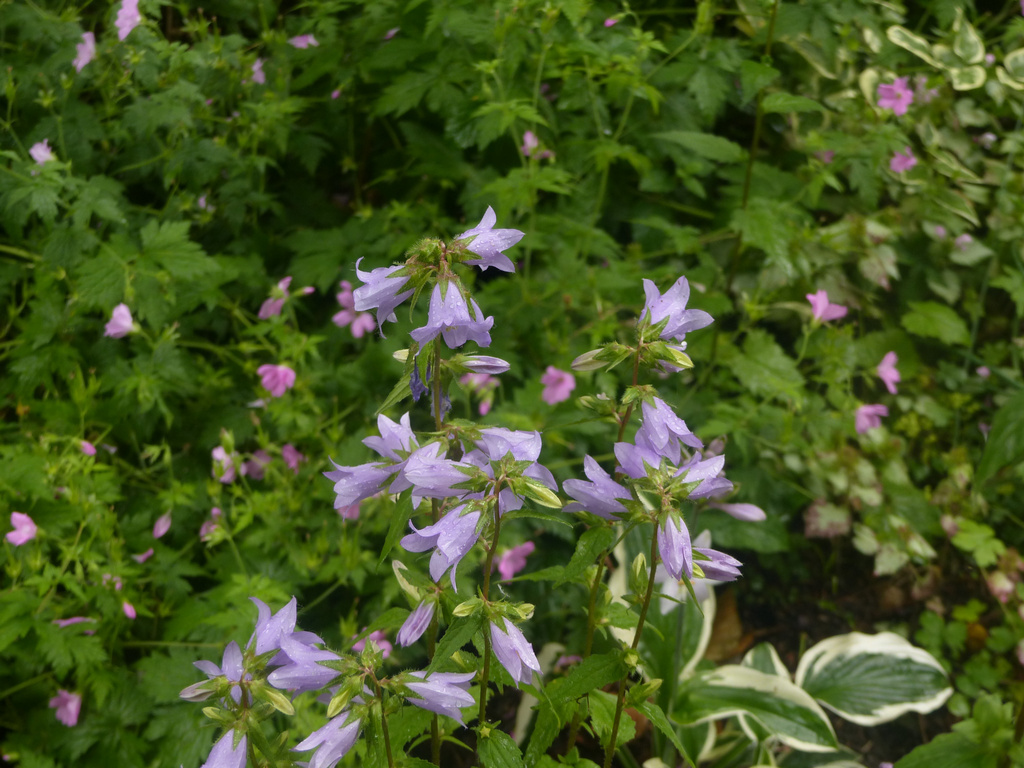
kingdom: Plantae
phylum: Tracheophyta
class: Magnoliopsida
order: Asterales
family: Campanulaceae
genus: Campanula
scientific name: Campanula trachelium
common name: Nettle-leaved bellflower
